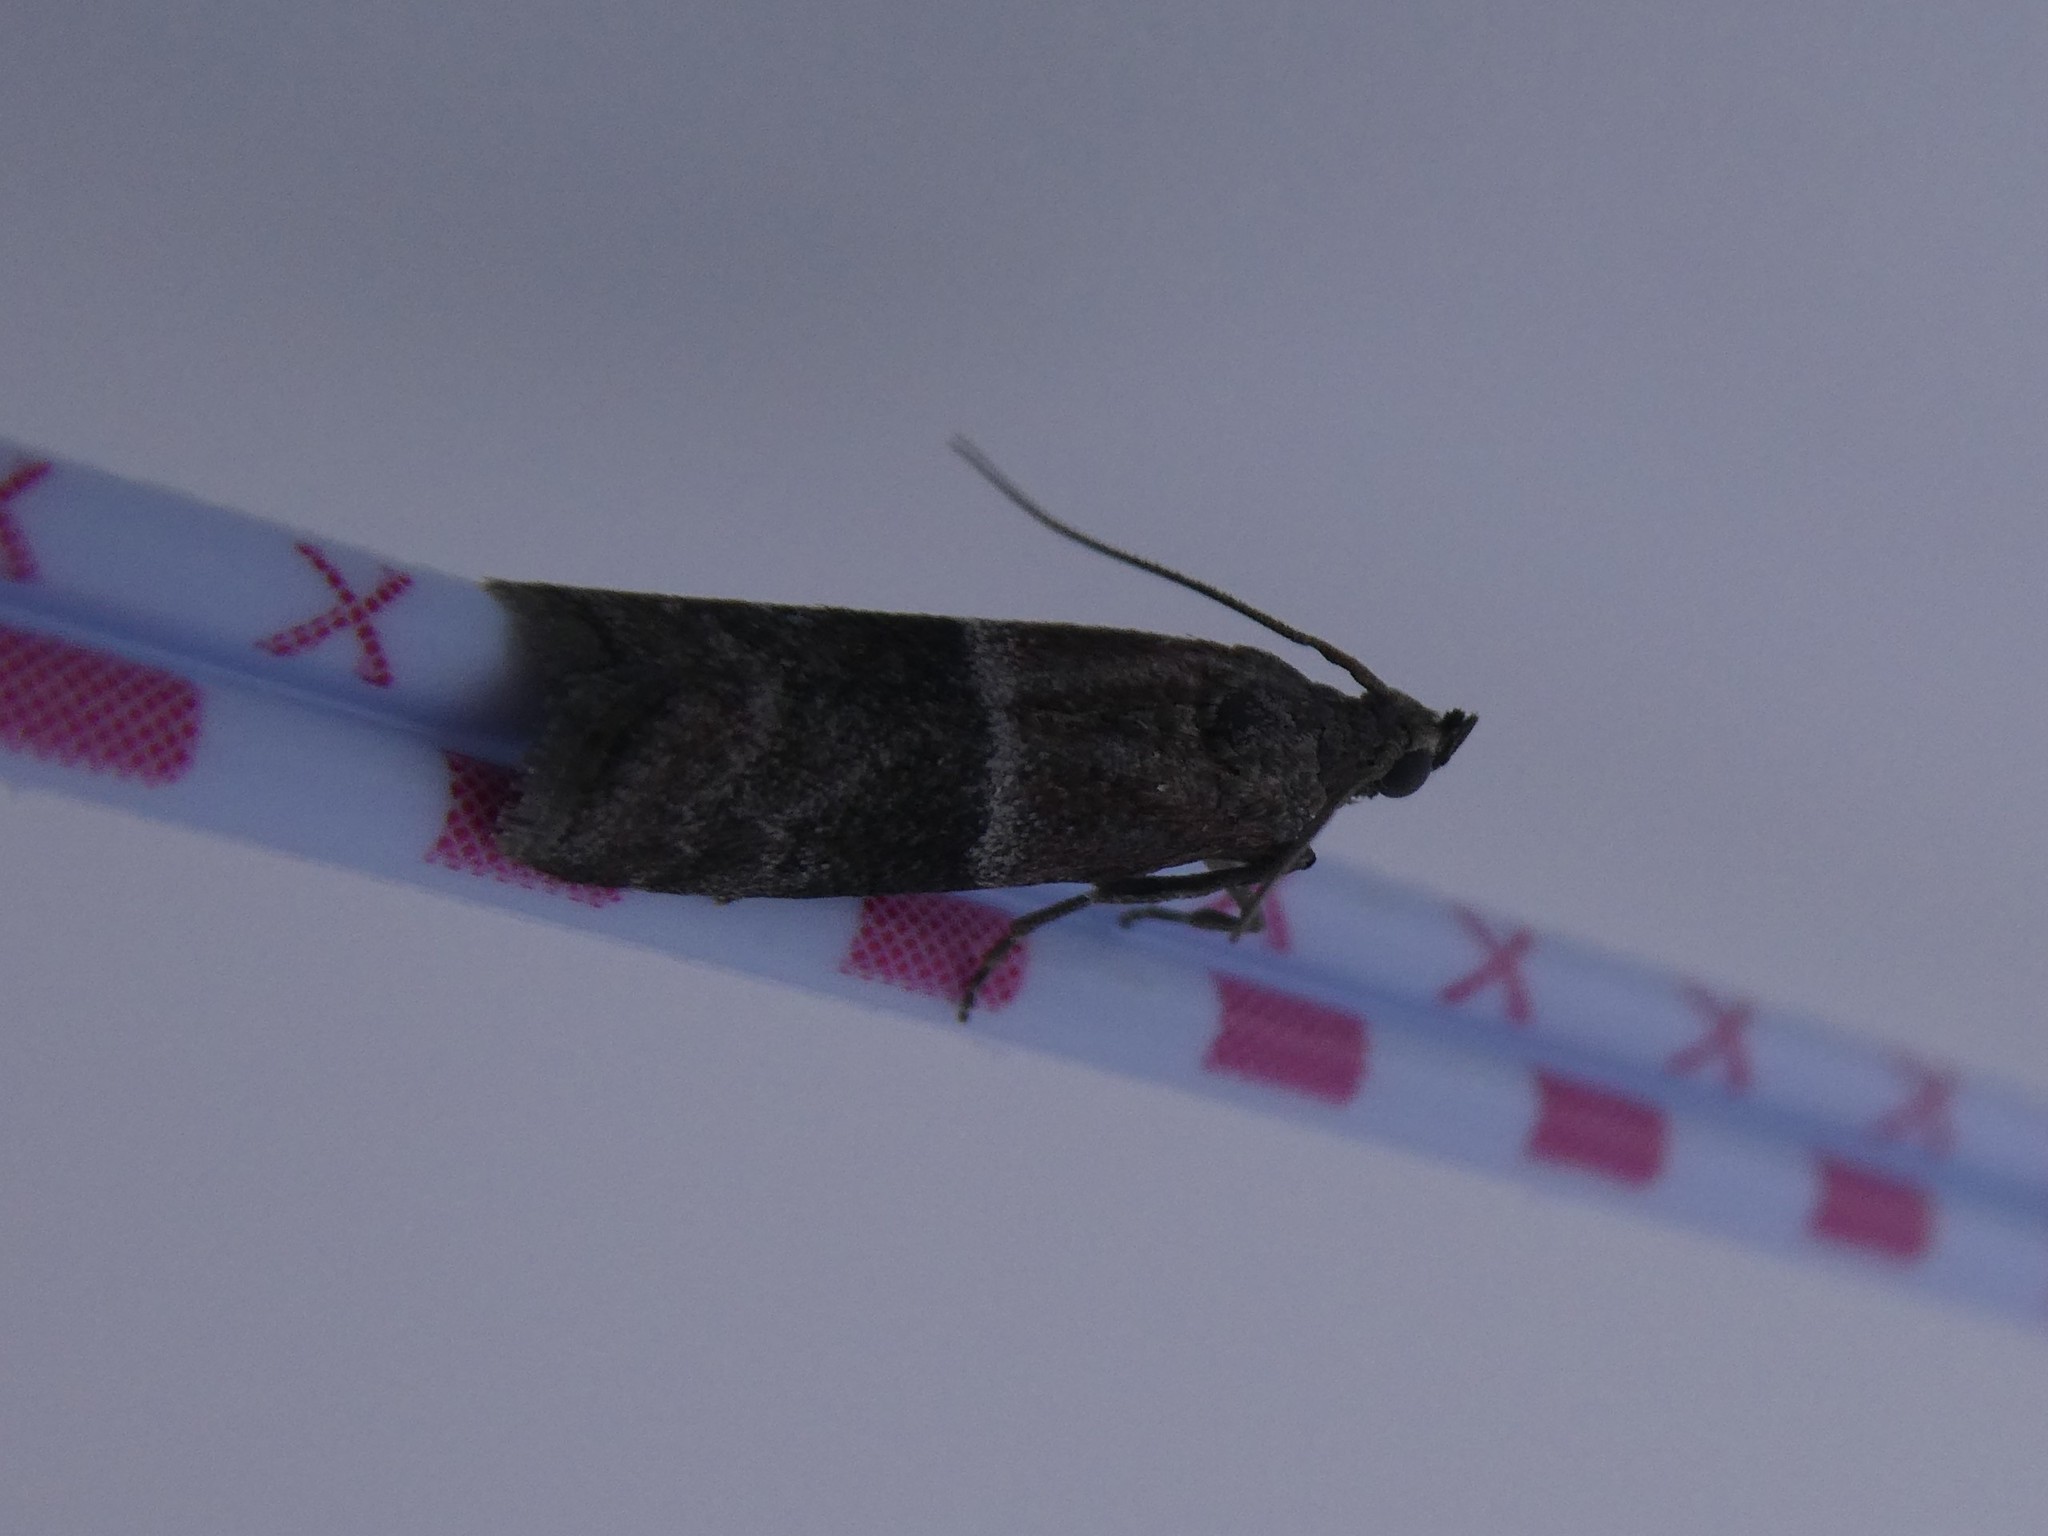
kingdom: Animalia
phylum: Arthropoda
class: Insecta
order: Lepidoptera
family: Pyralidae
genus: Moodna
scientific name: Moodna ostrinella
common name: Darker moodna moth
